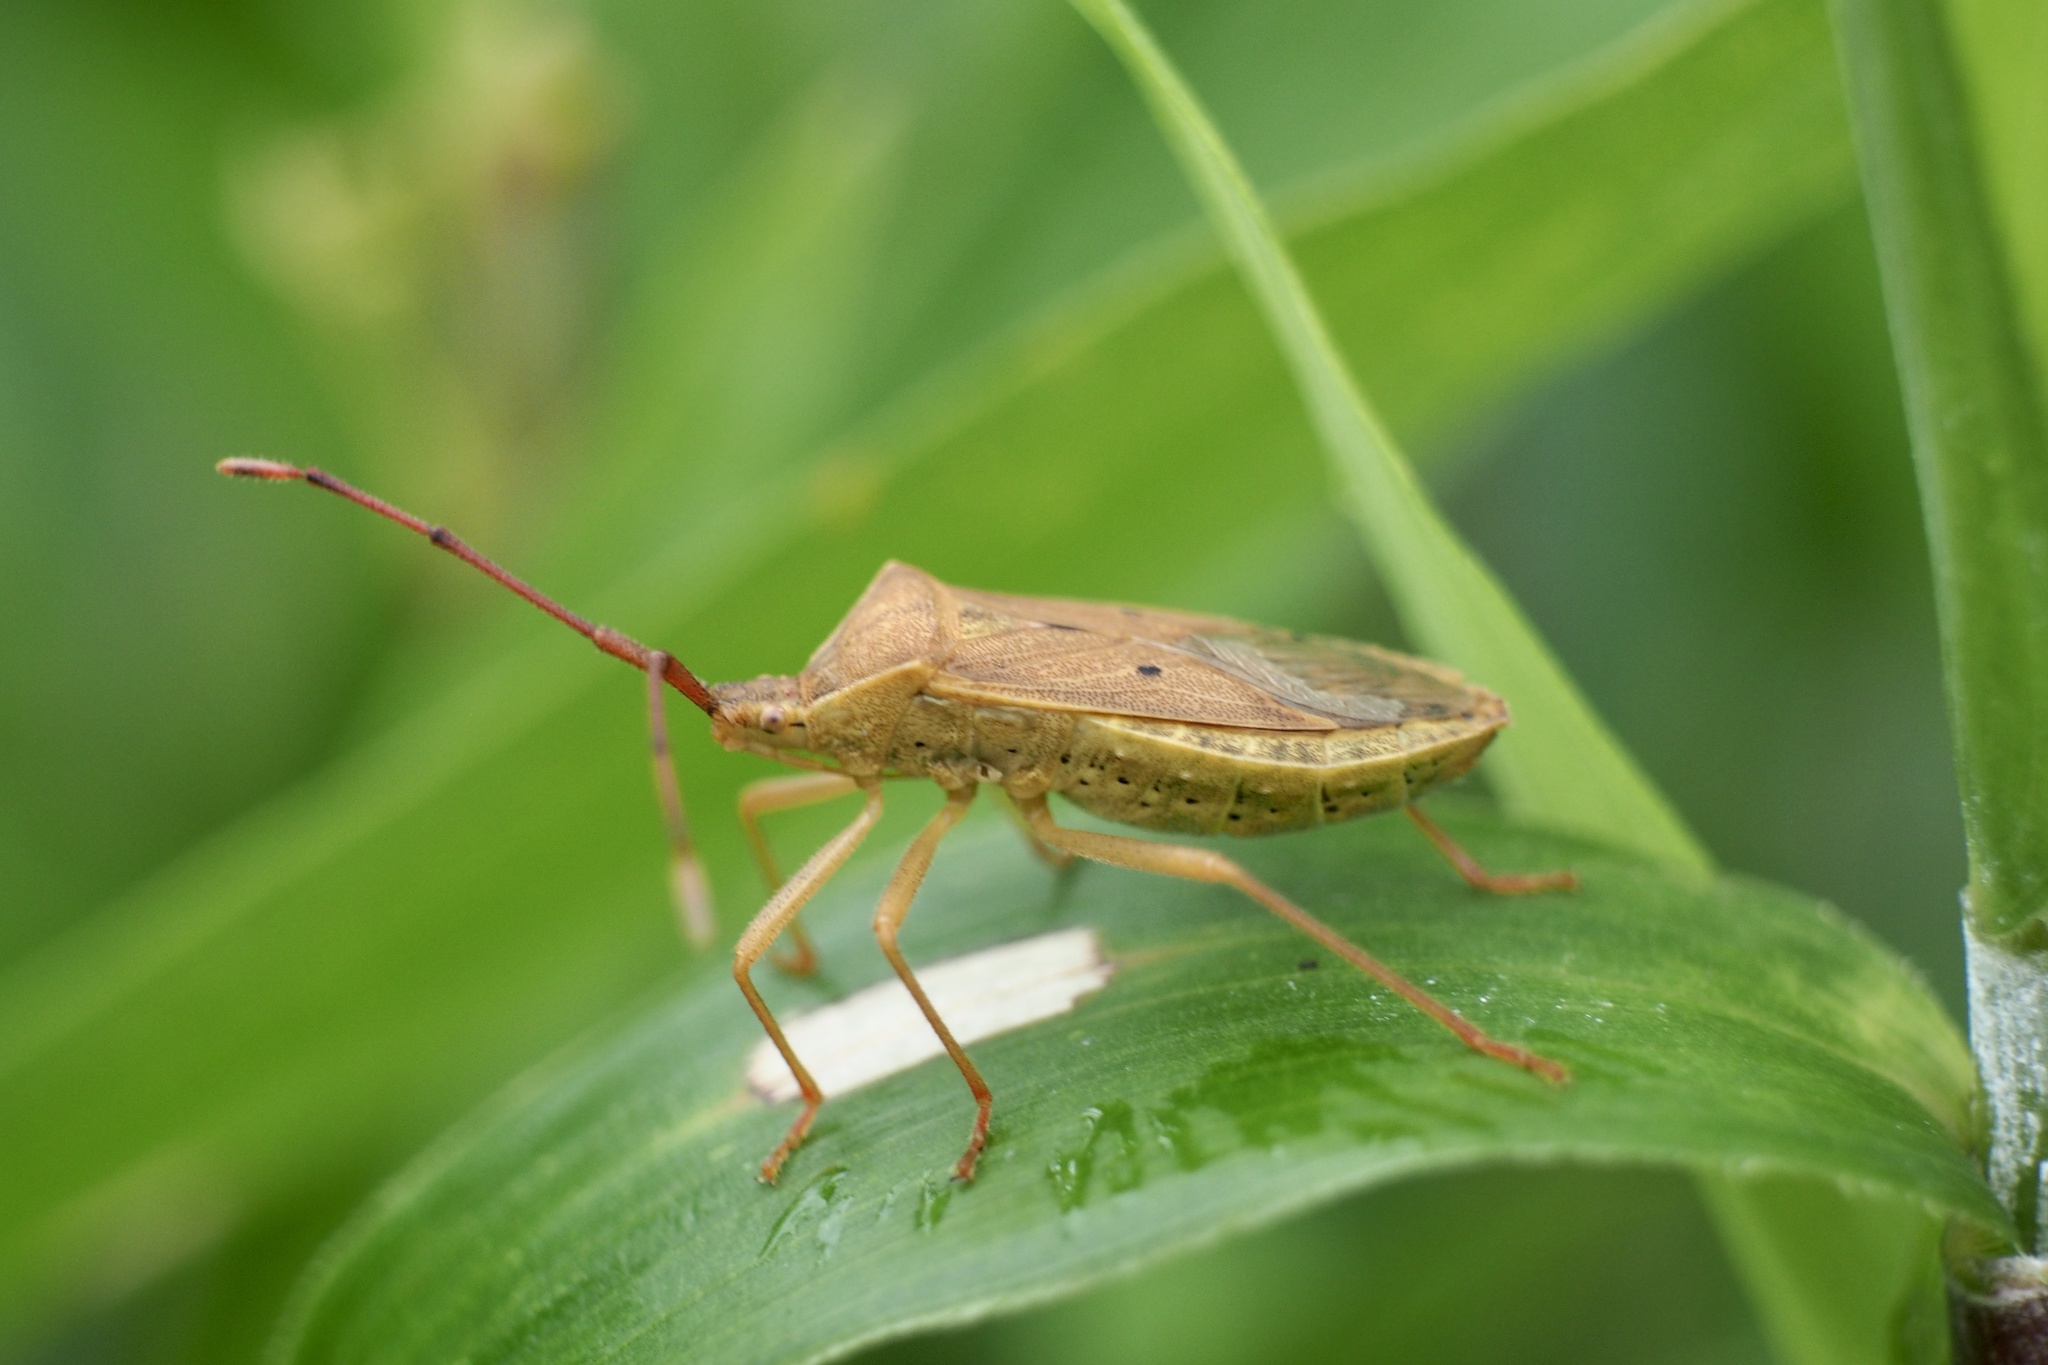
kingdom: Animalia
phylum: Arthropoda
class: Insecta
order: Hemiptera
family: Coreidae
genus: Homoeocerus
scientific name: Homoeocerus unipunctatus
